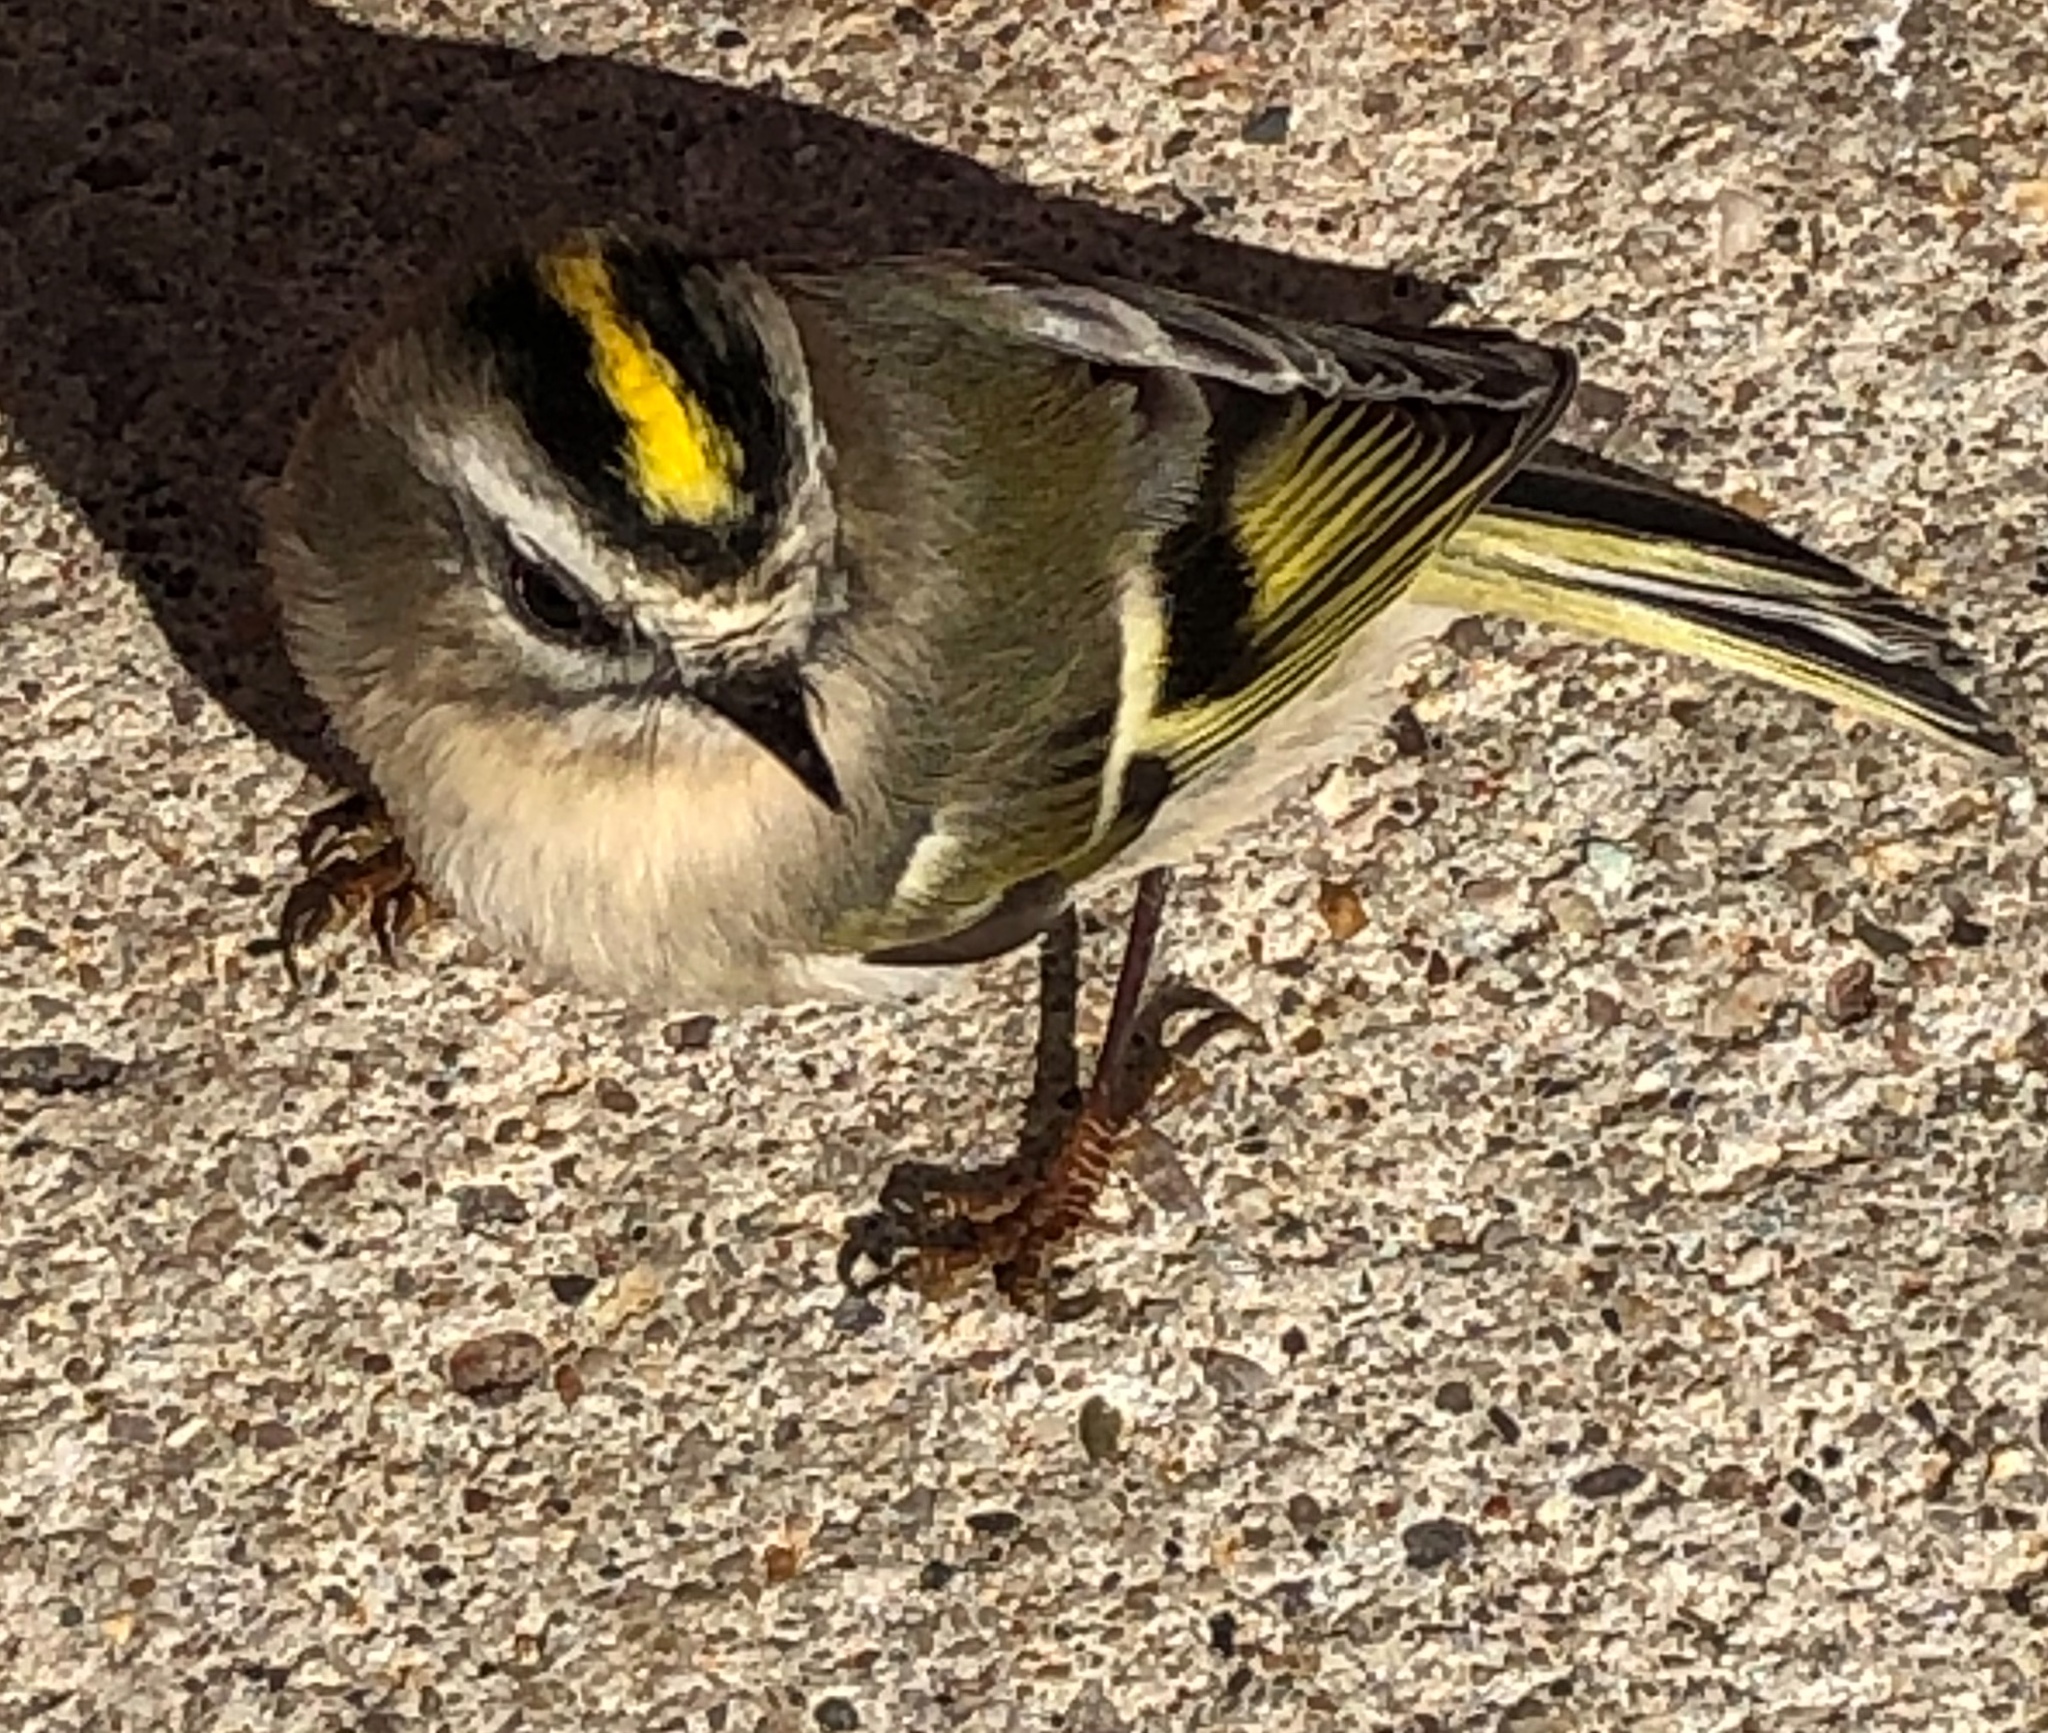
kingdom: Animalia
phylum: Chordata
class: Aves
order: Passeriformes
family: Regulidae
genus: Regulus
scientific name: Regulus satrapa
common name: Golden-crowned kinglet
